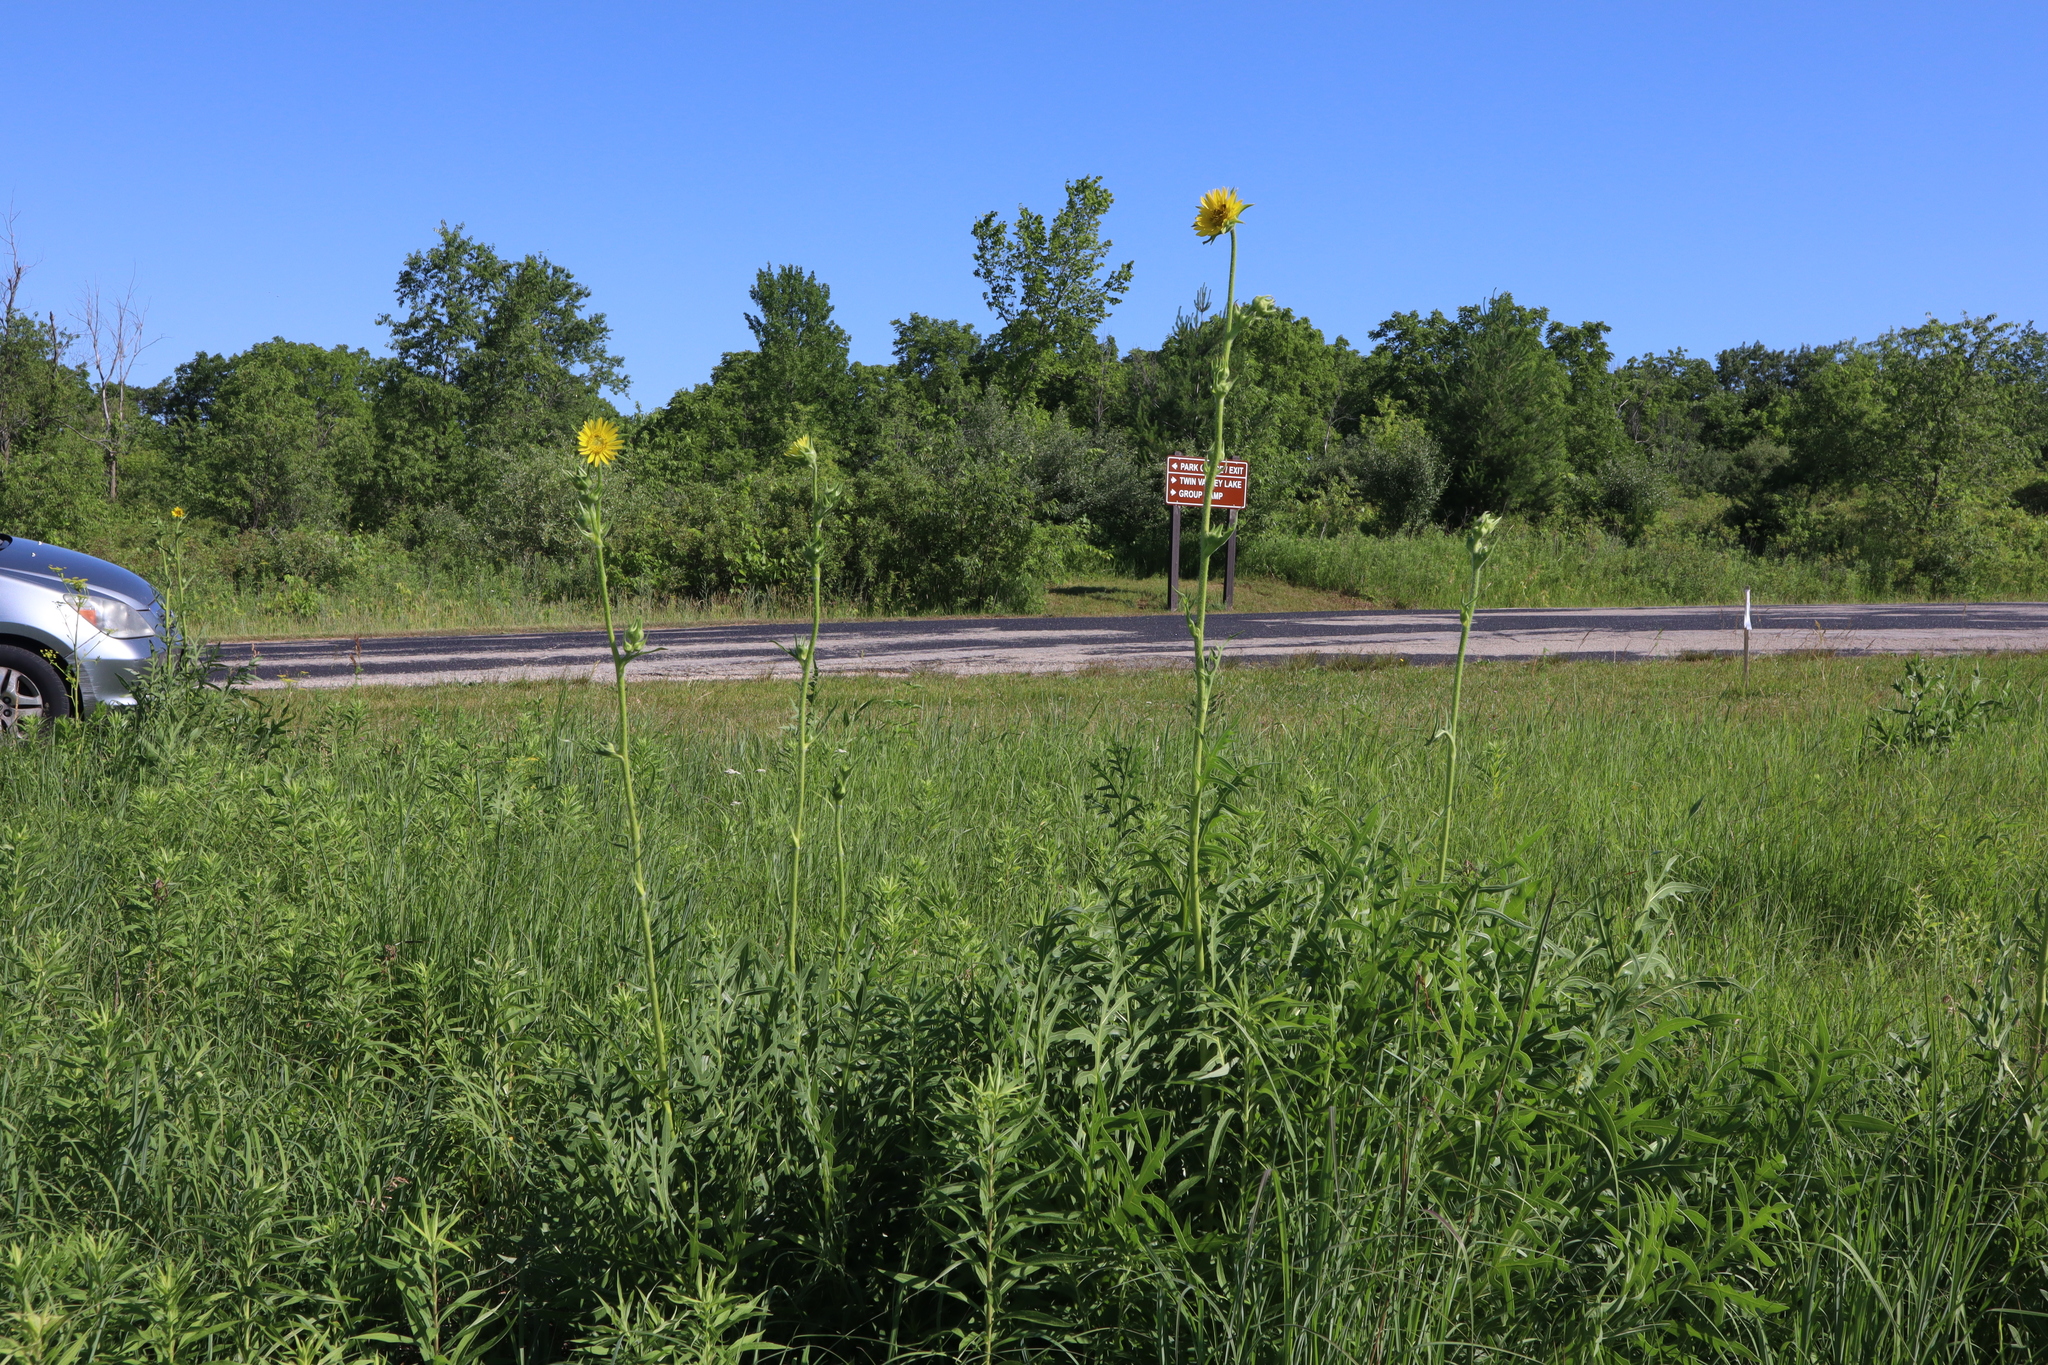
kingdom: Plantae
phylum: Tracheophyta
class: Magnoliopsida
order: Asterales
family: Asteraceae
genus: Silphium
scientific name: Silphium laciniatum
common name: Polarplant
